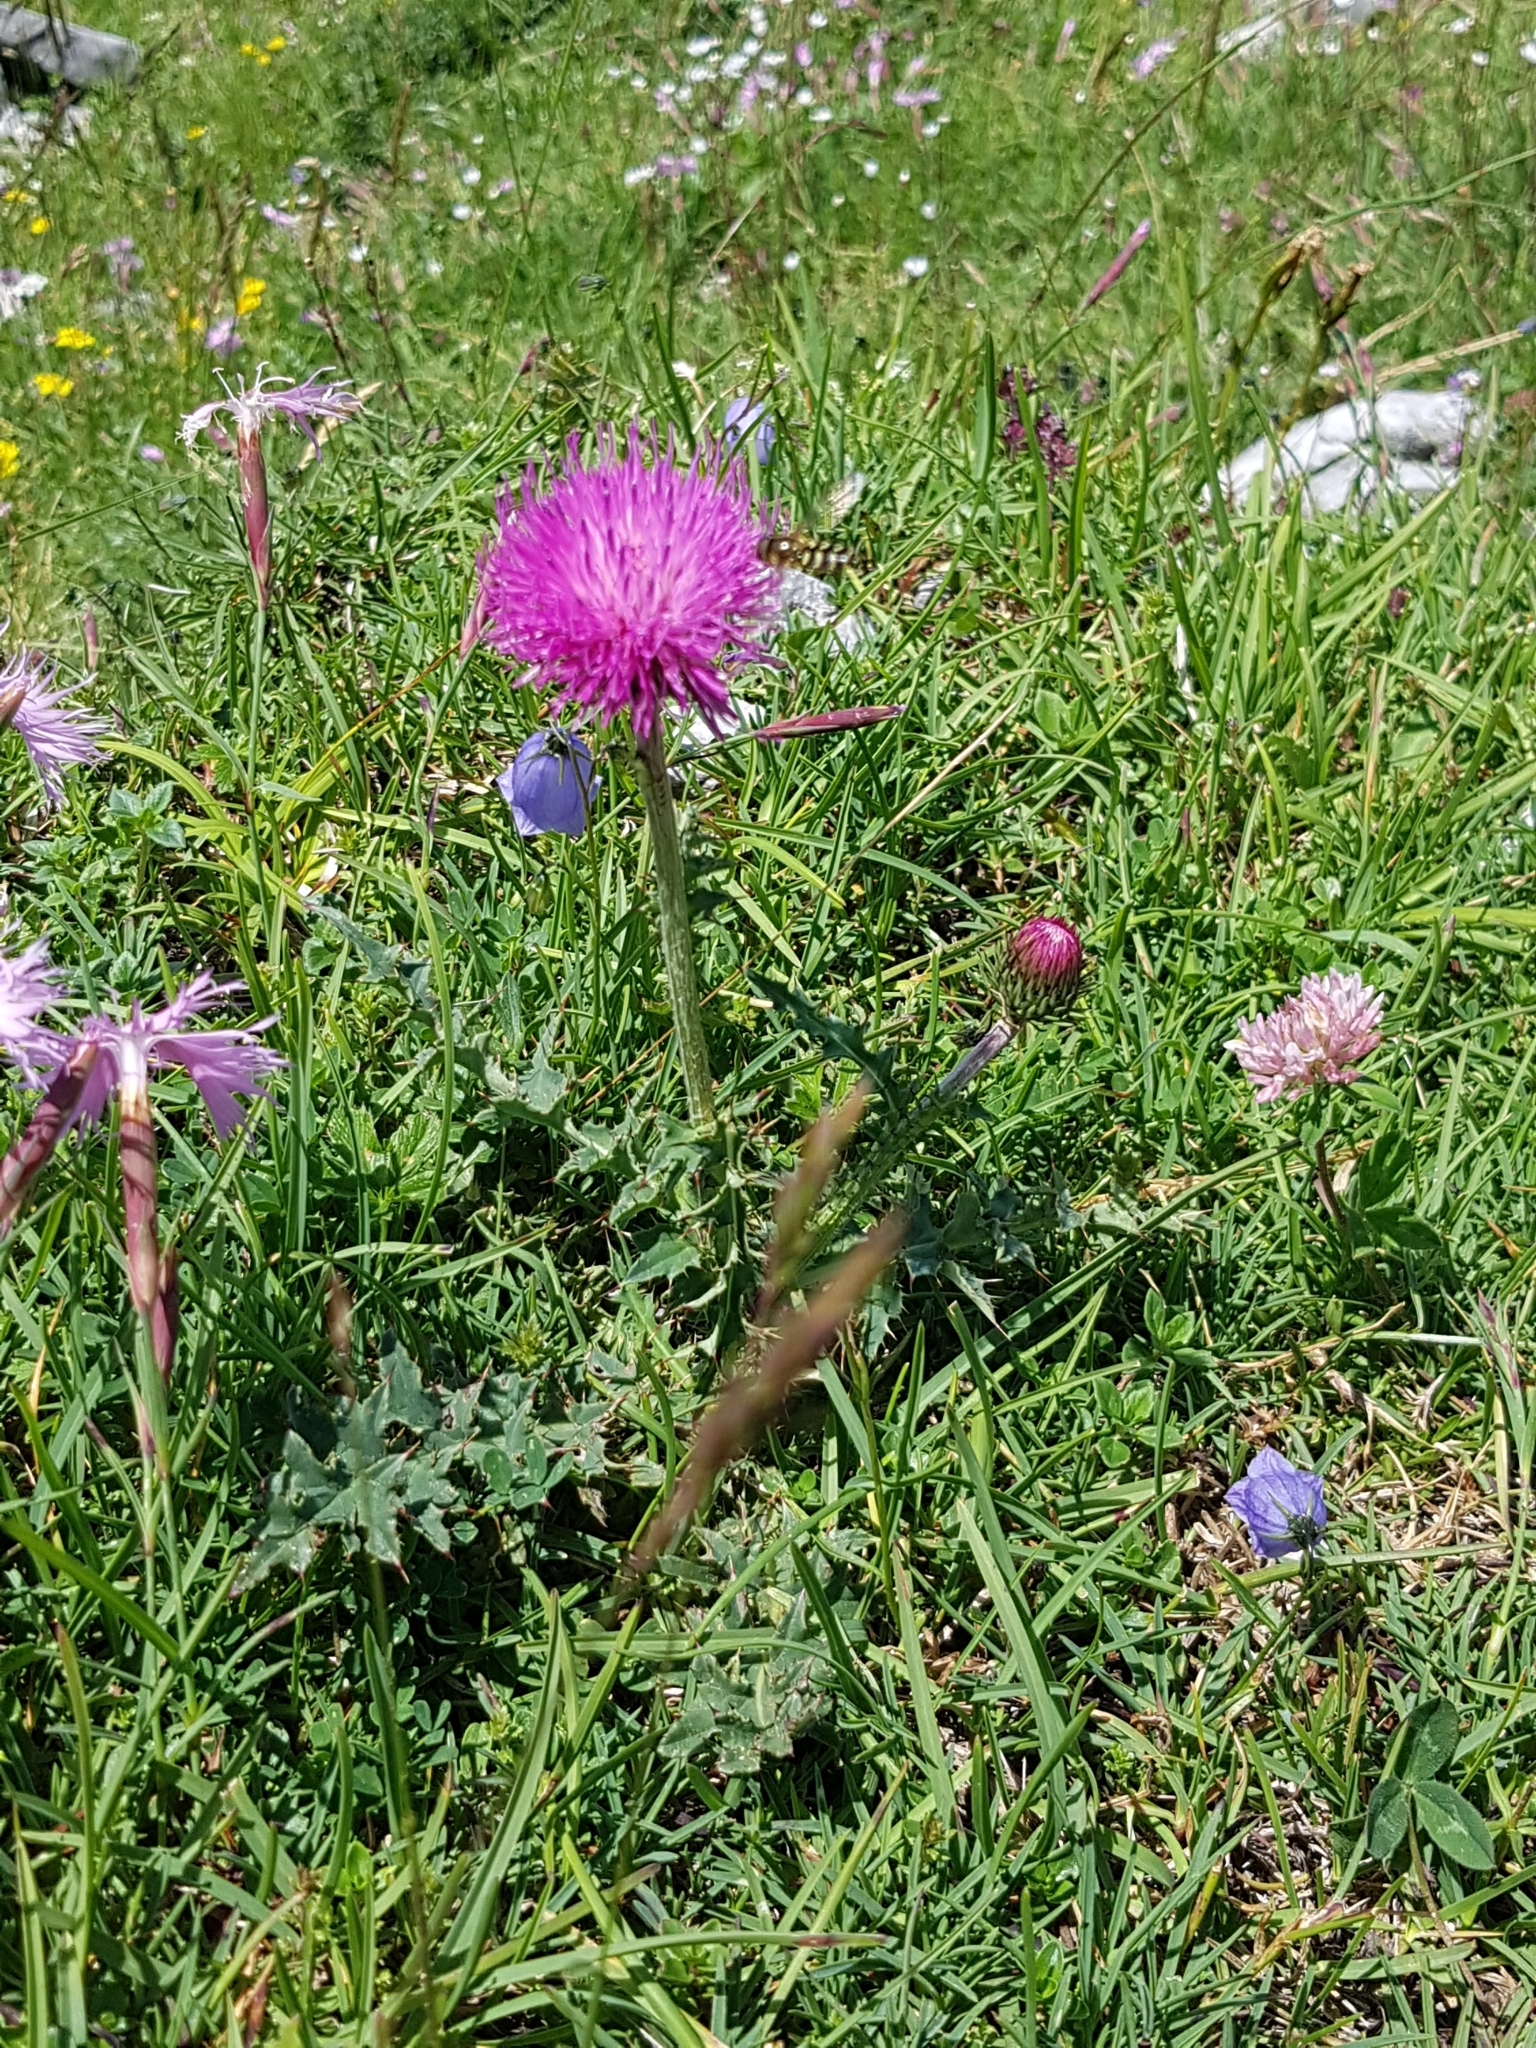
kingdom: Plantae
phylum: Tracheophyta
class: Magnoliopsida
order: Asterales
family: Asteraceae
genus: Carduus
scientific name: Carduus defloratus
